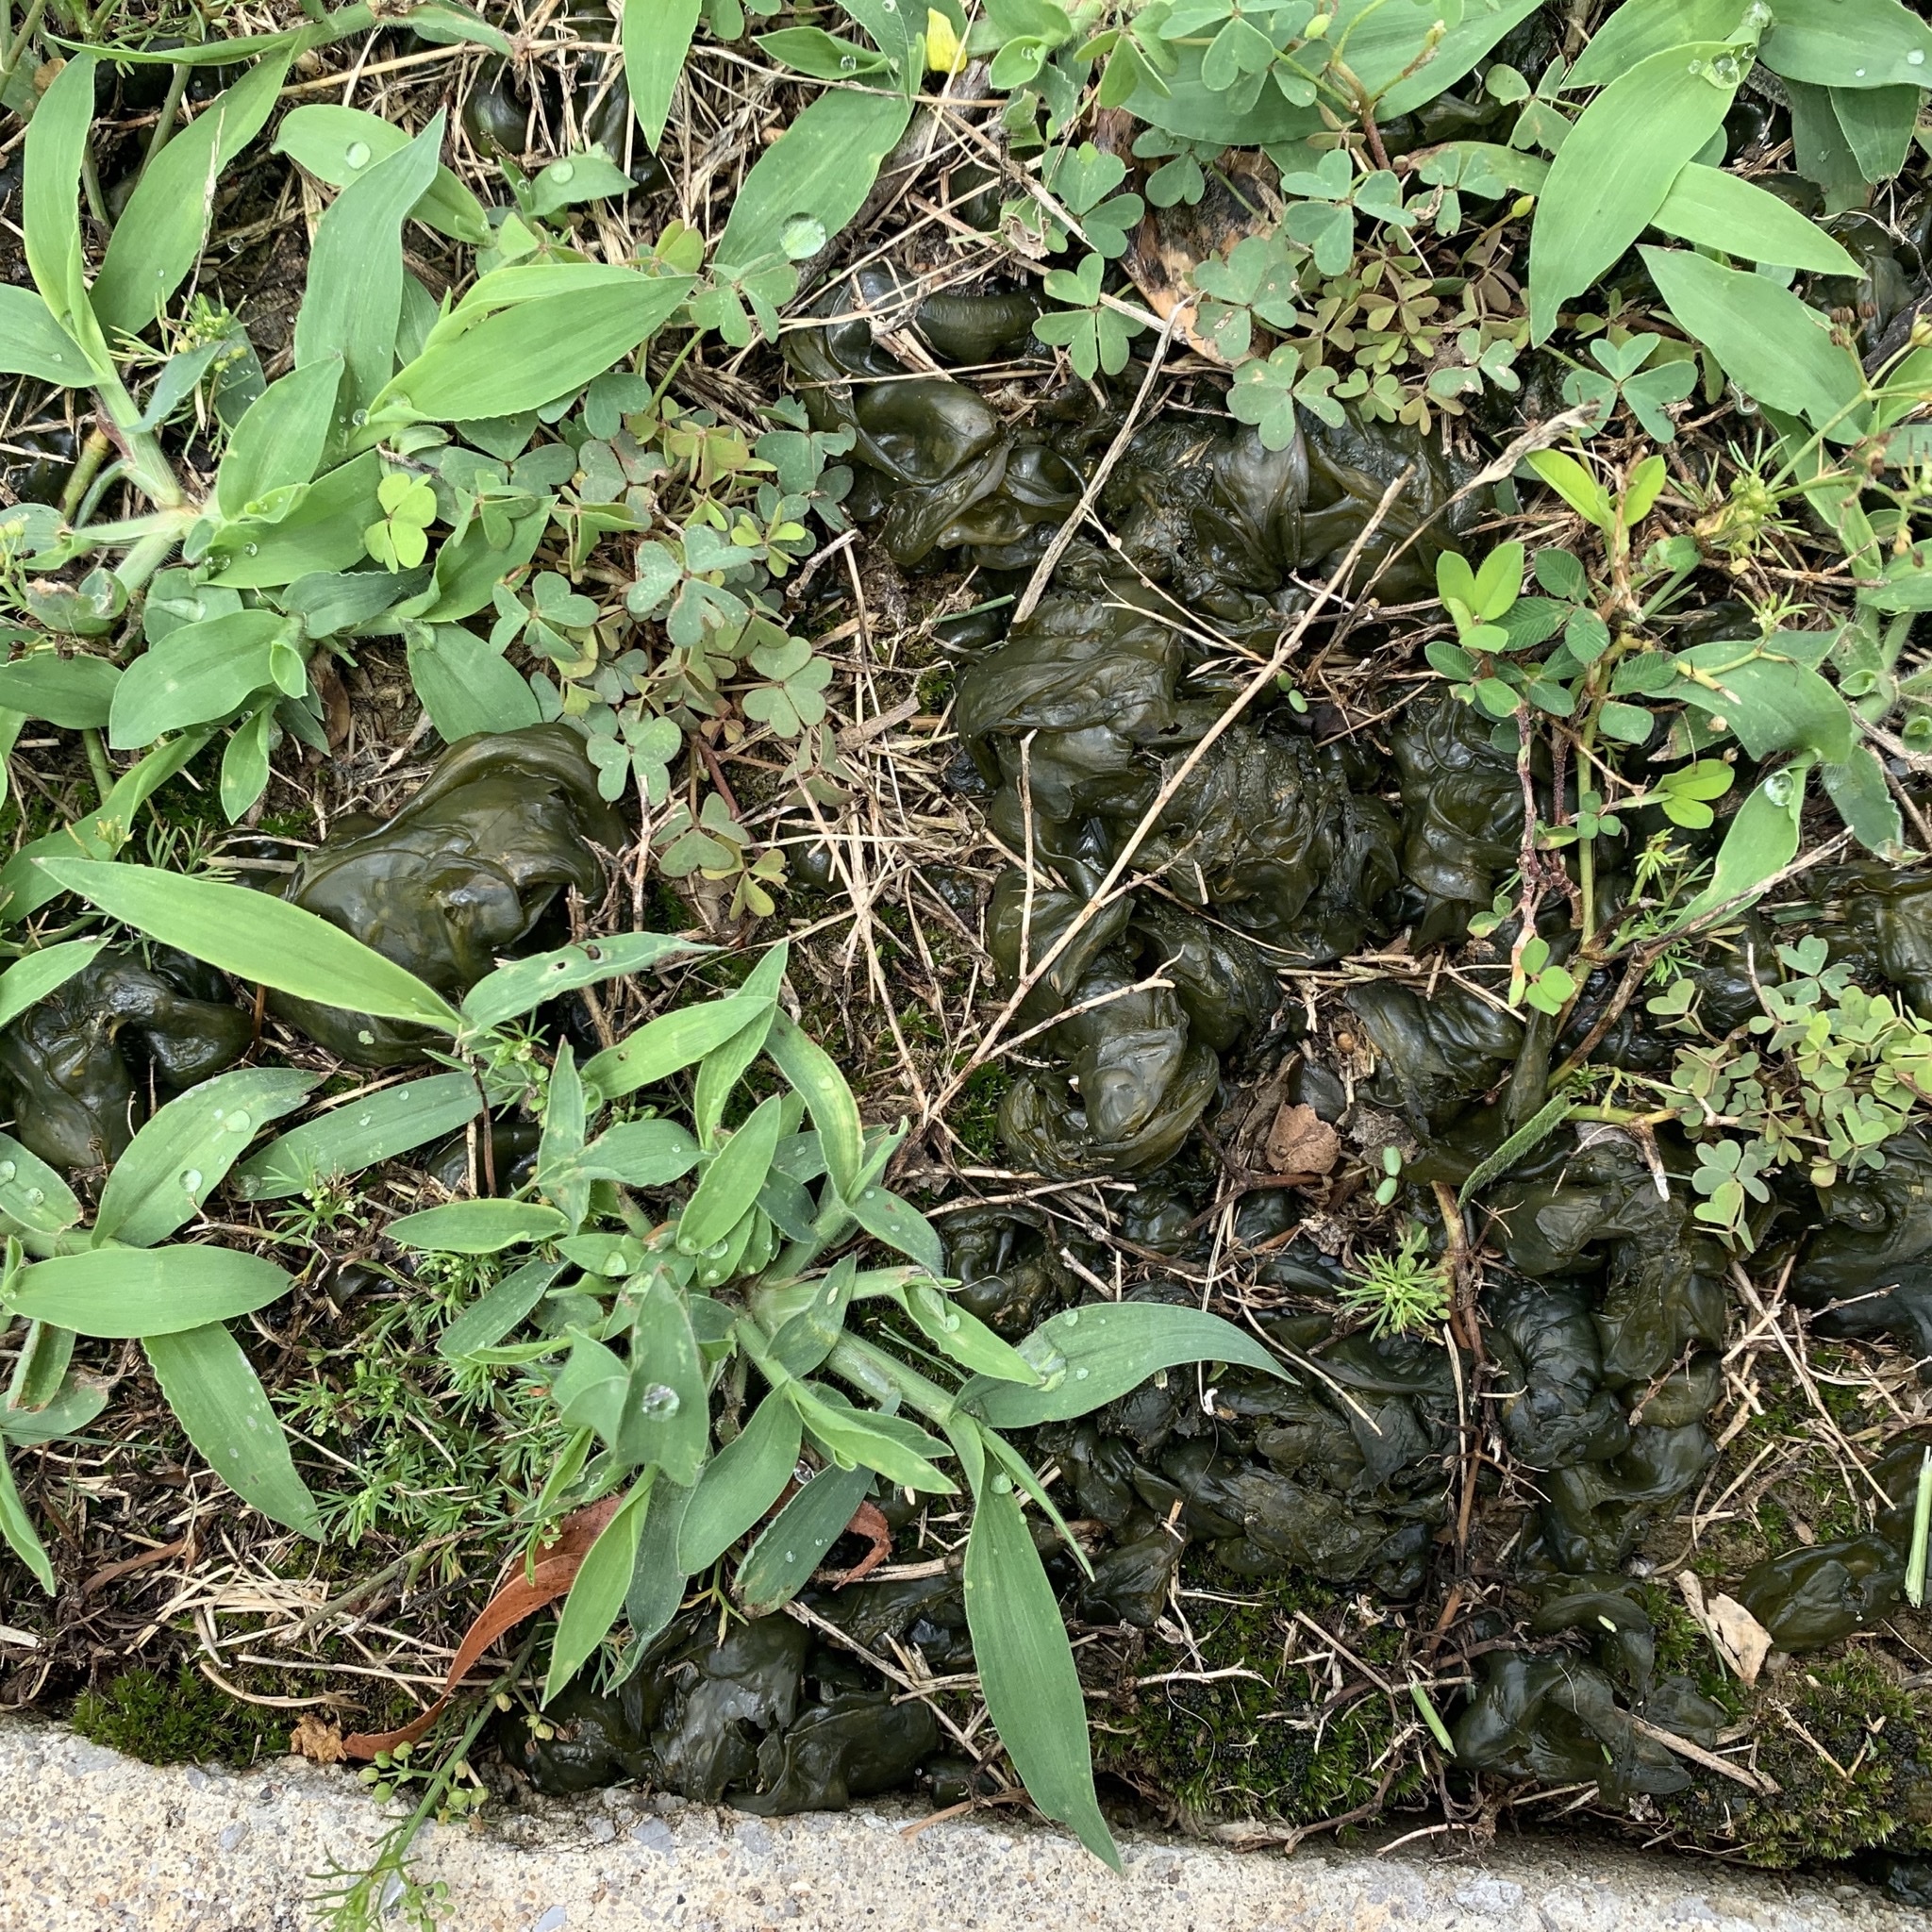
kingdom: Bacteria
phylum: Cyanobacteria
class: Cyanobacteriia
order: Cyanobacteriales
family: Nostocaceae
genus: Nostoc
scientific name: Nostoc commune
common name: Star jelly
